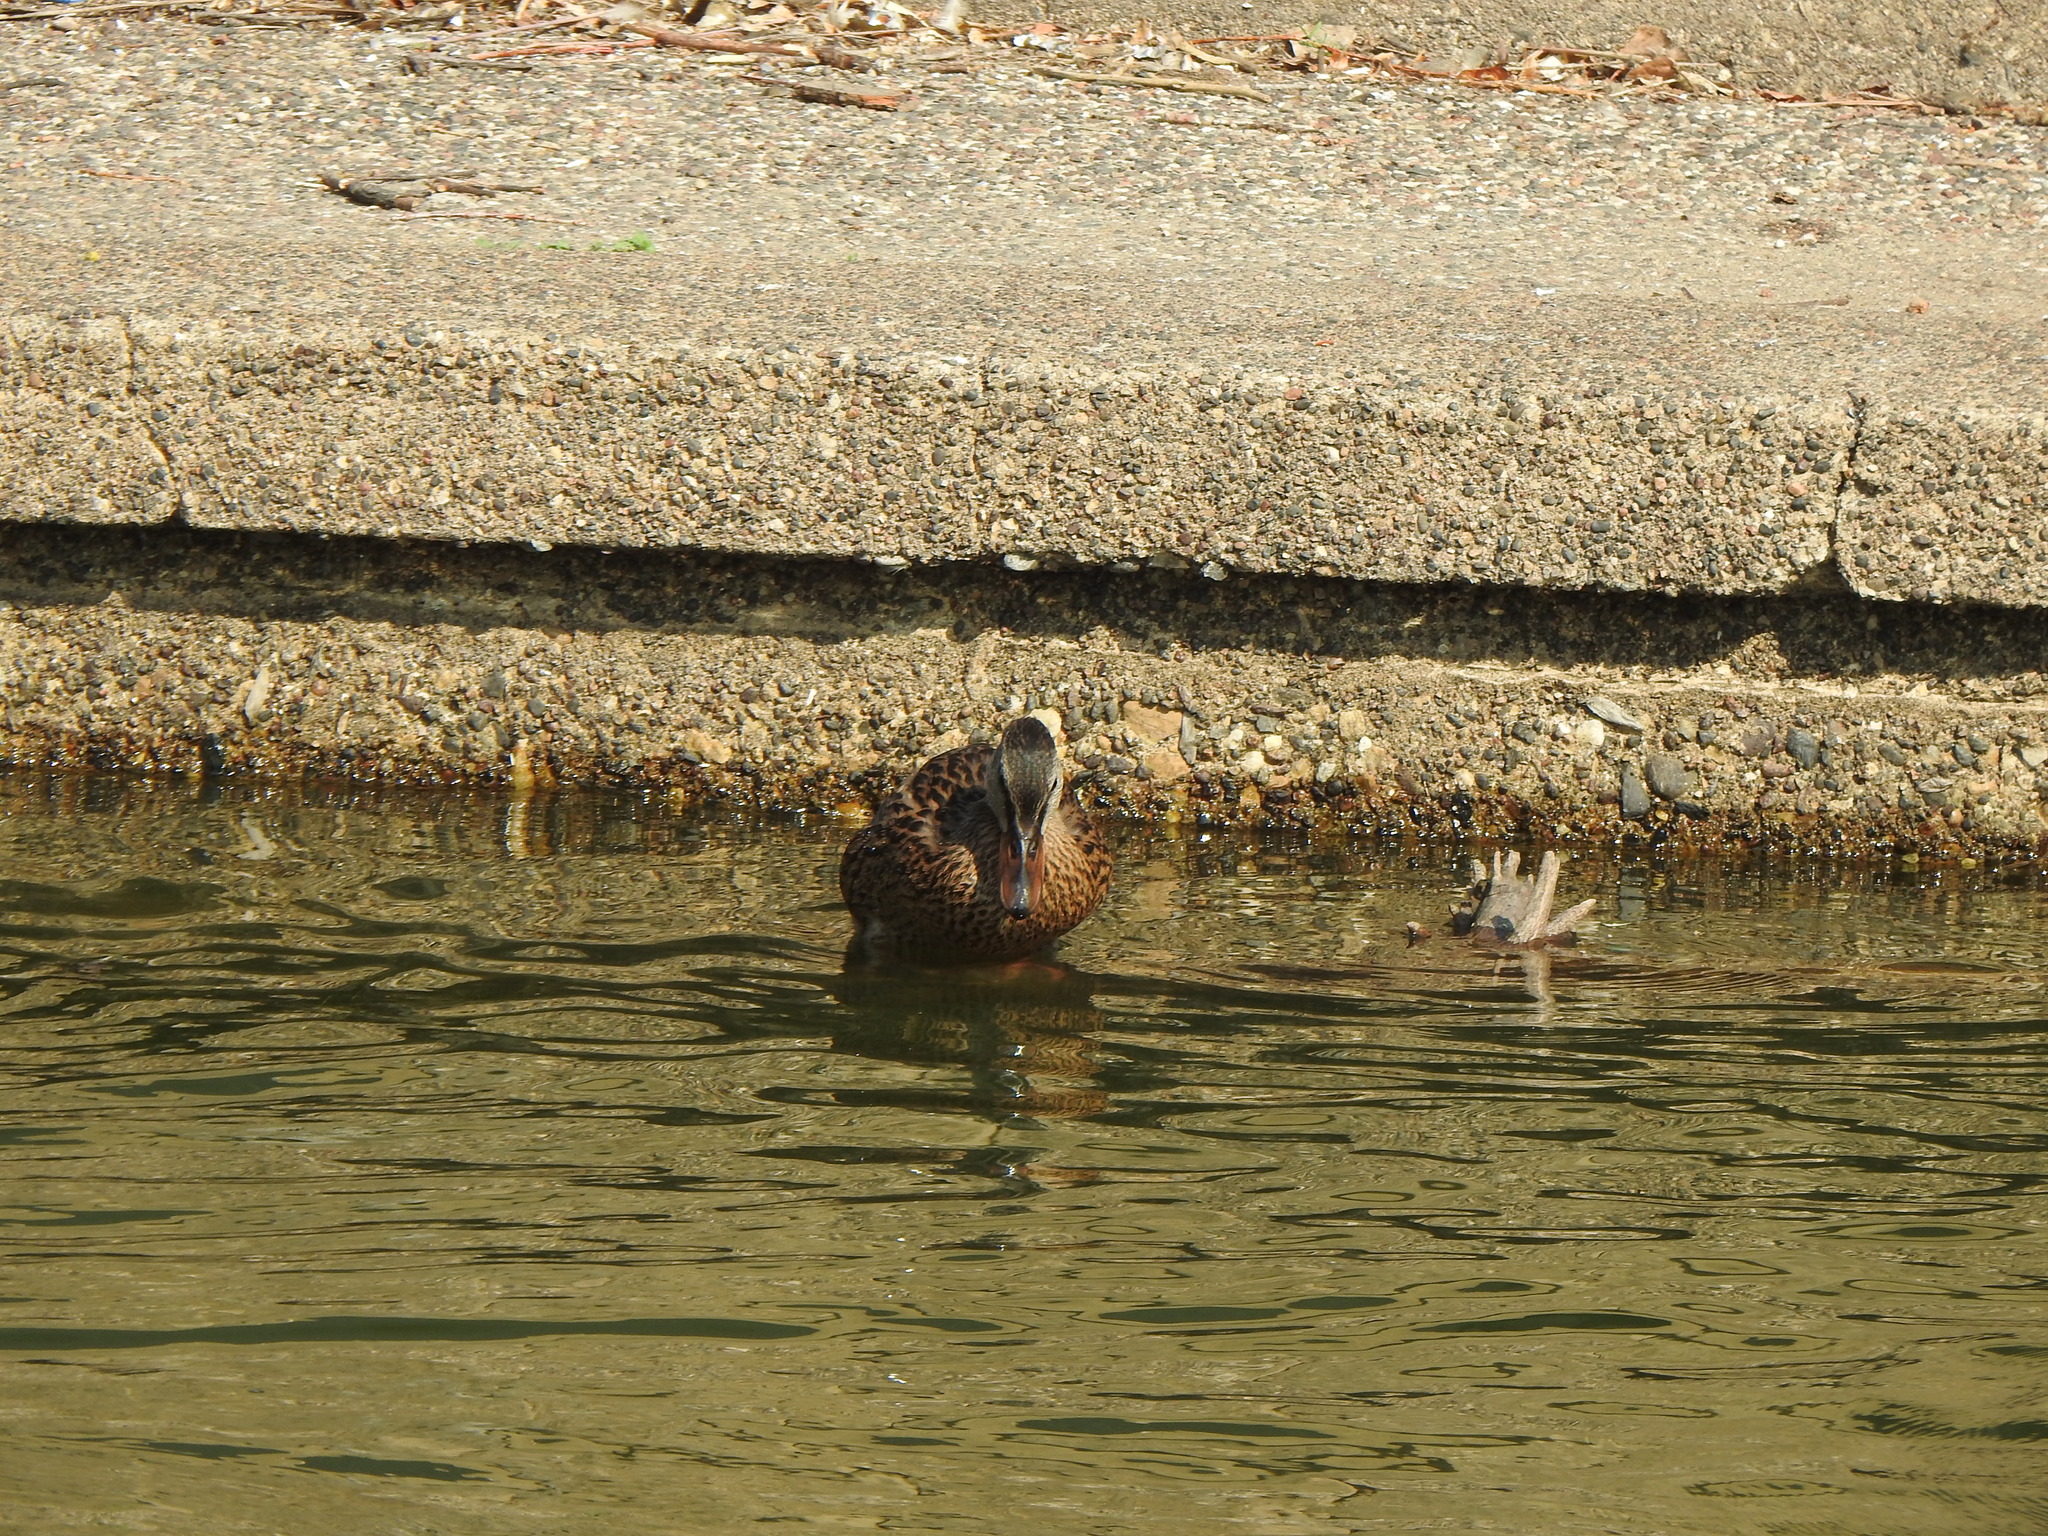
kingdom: Animalia
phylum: Chordata
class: Aves
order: Anseriformes
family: Anatidae
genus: Anas
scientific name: Anas platyrhynchos
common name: Mallard
